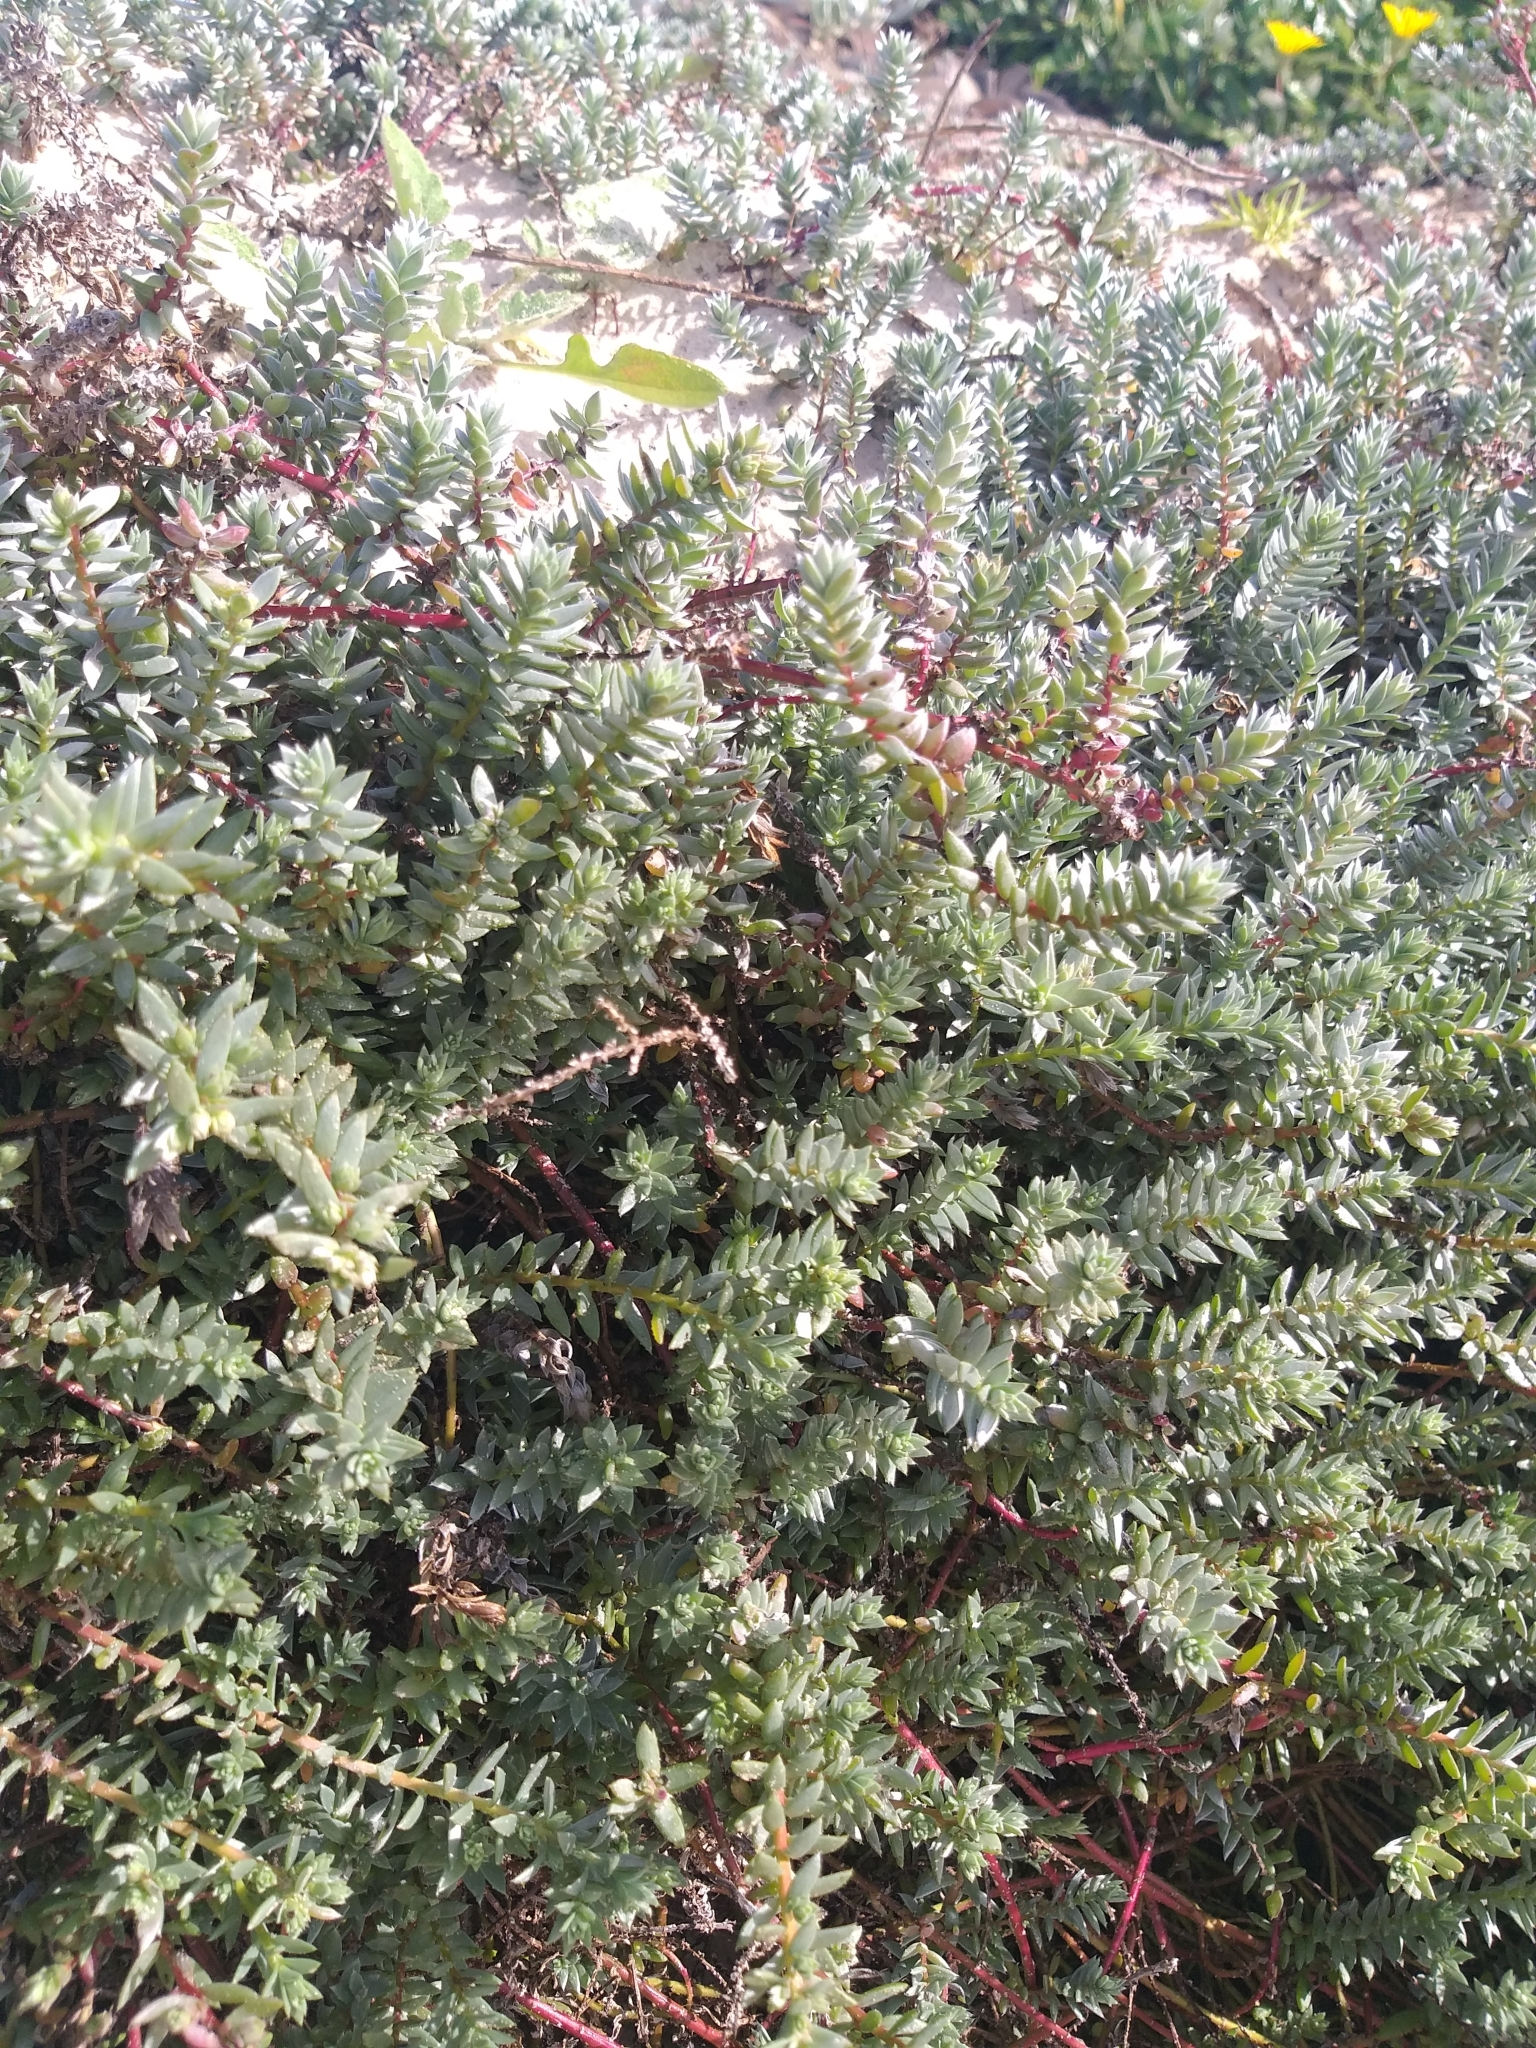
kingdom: Plantae
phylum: Tracheophyta
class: Magnoliopsida
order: Caryophyllales
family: Amaranthaceae
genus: Chenolea
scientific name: Chenolea diffusa
